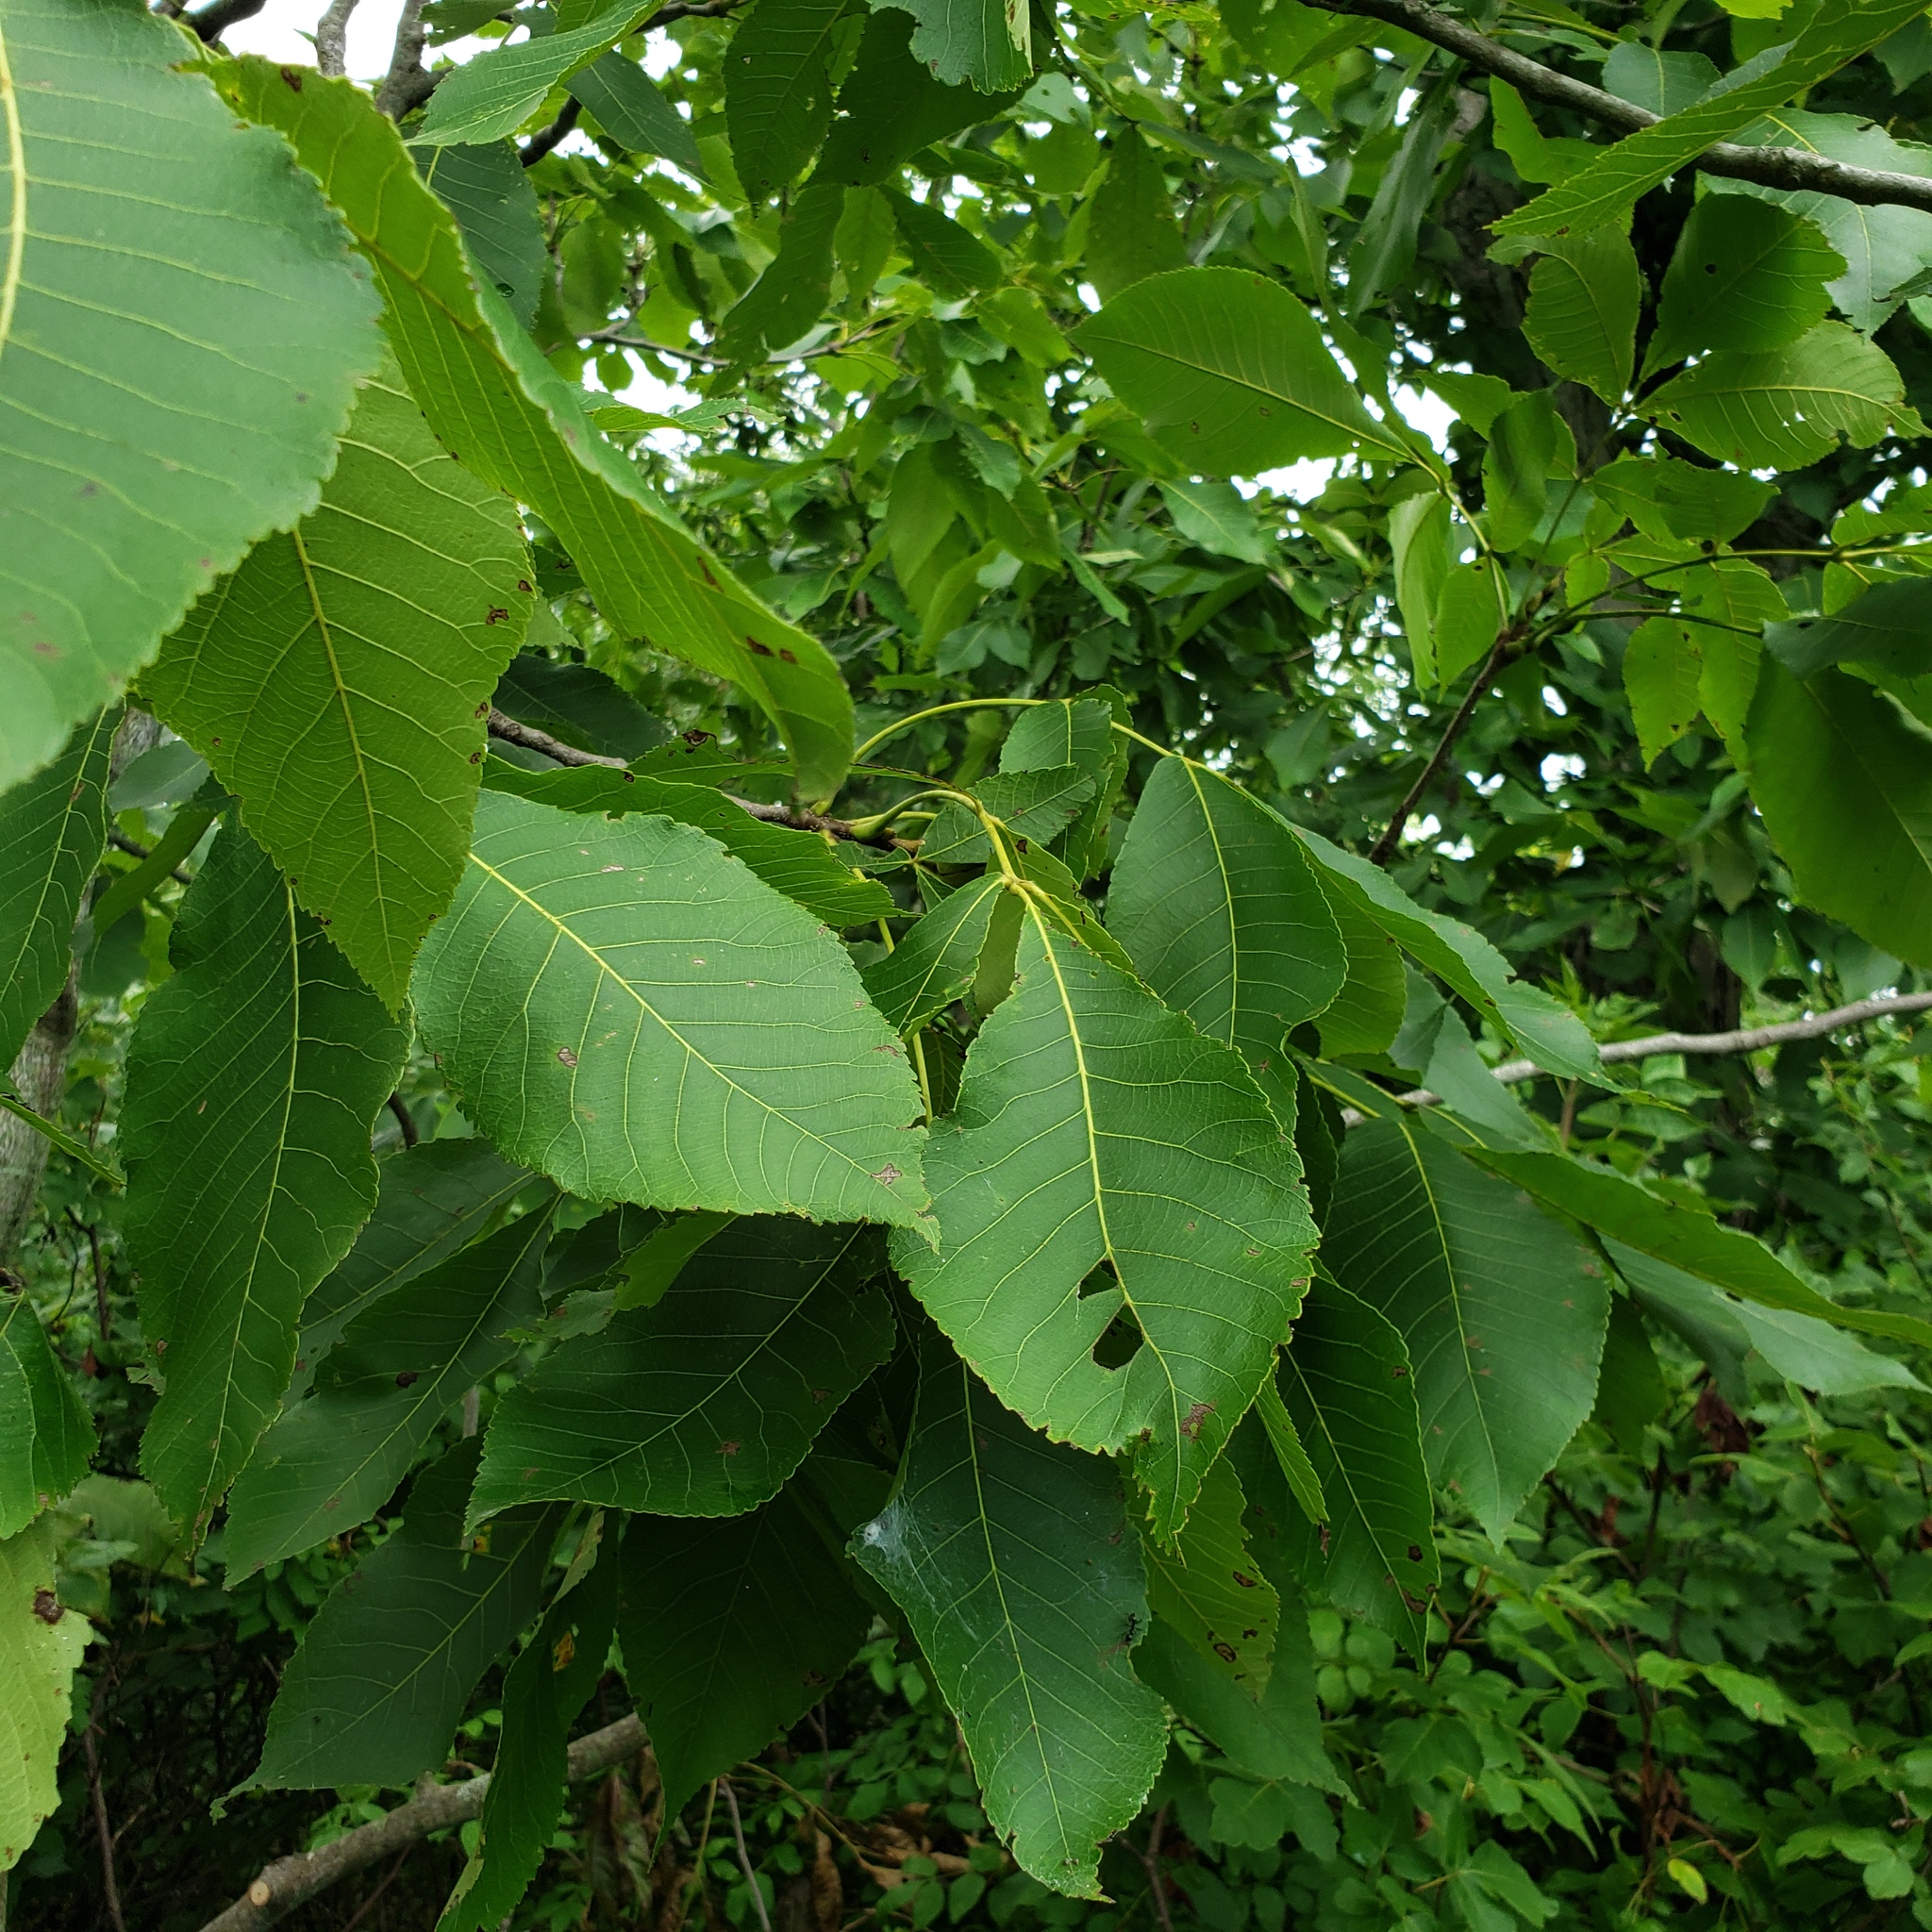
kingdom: Plantae
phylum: Tracheophyta
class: Magnoliopsida
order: Fagales
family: Juglandaceae
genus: Carya
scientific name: Carya ovata
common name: Shagbark hickory
